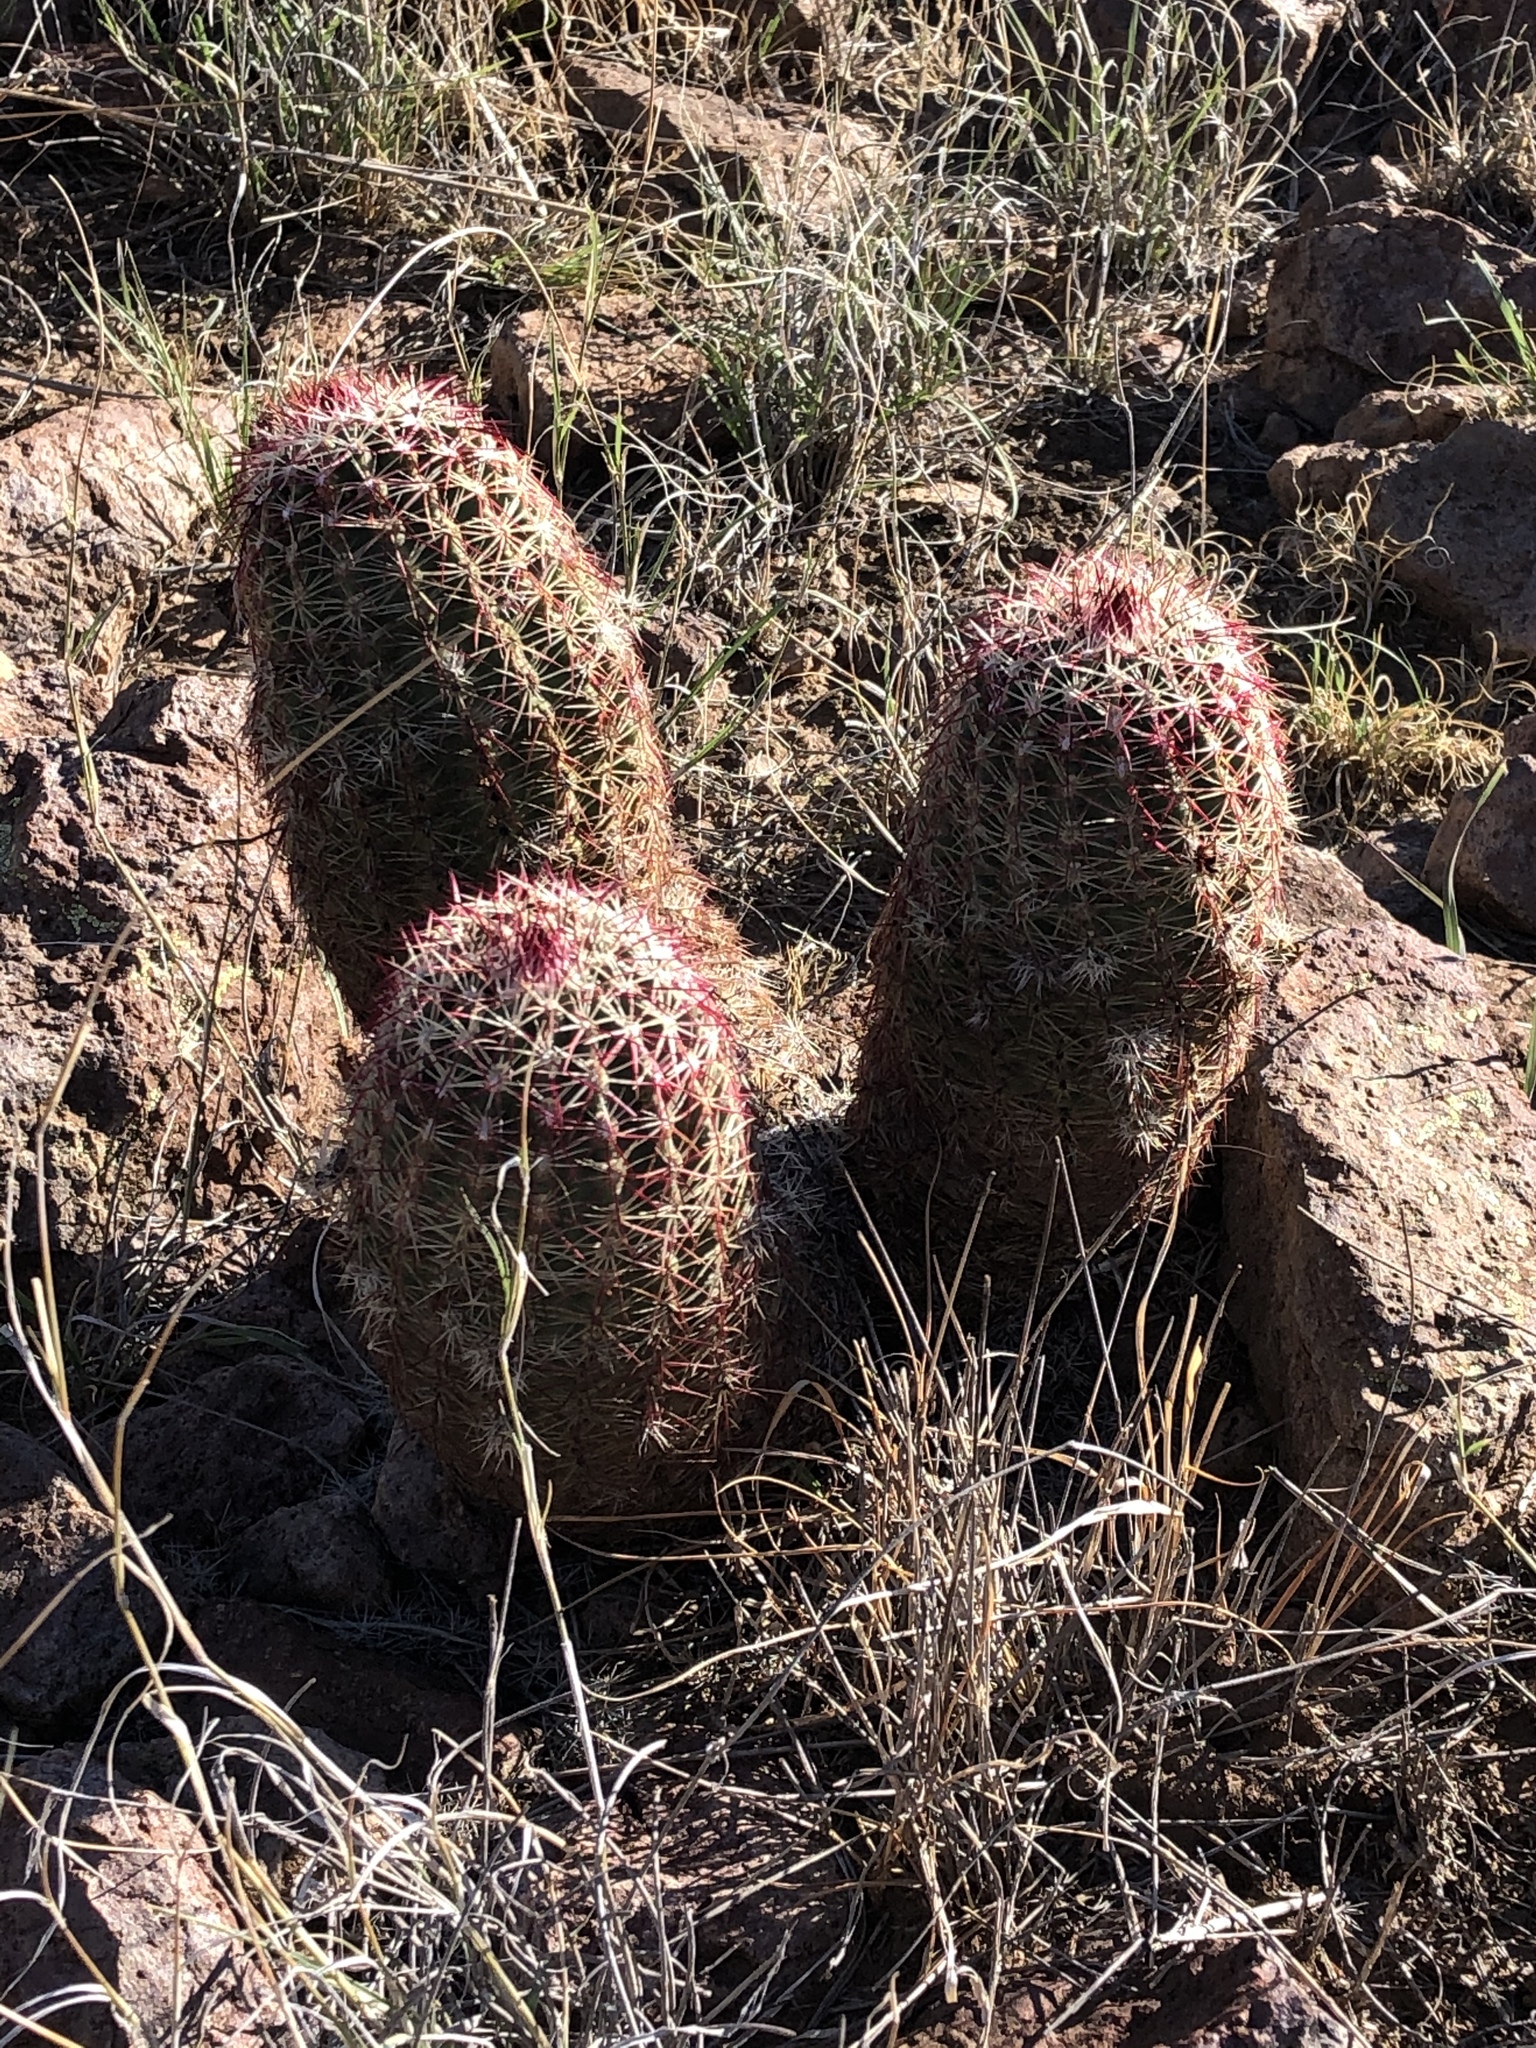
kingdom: Plantae
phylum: Tracheophyta
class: Magnoliopsida
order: Caryophyllales
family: Cactaceae
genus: Echinocereus
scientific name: Echinocereus viridiflorus
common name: Nylon hedgehog cactus
